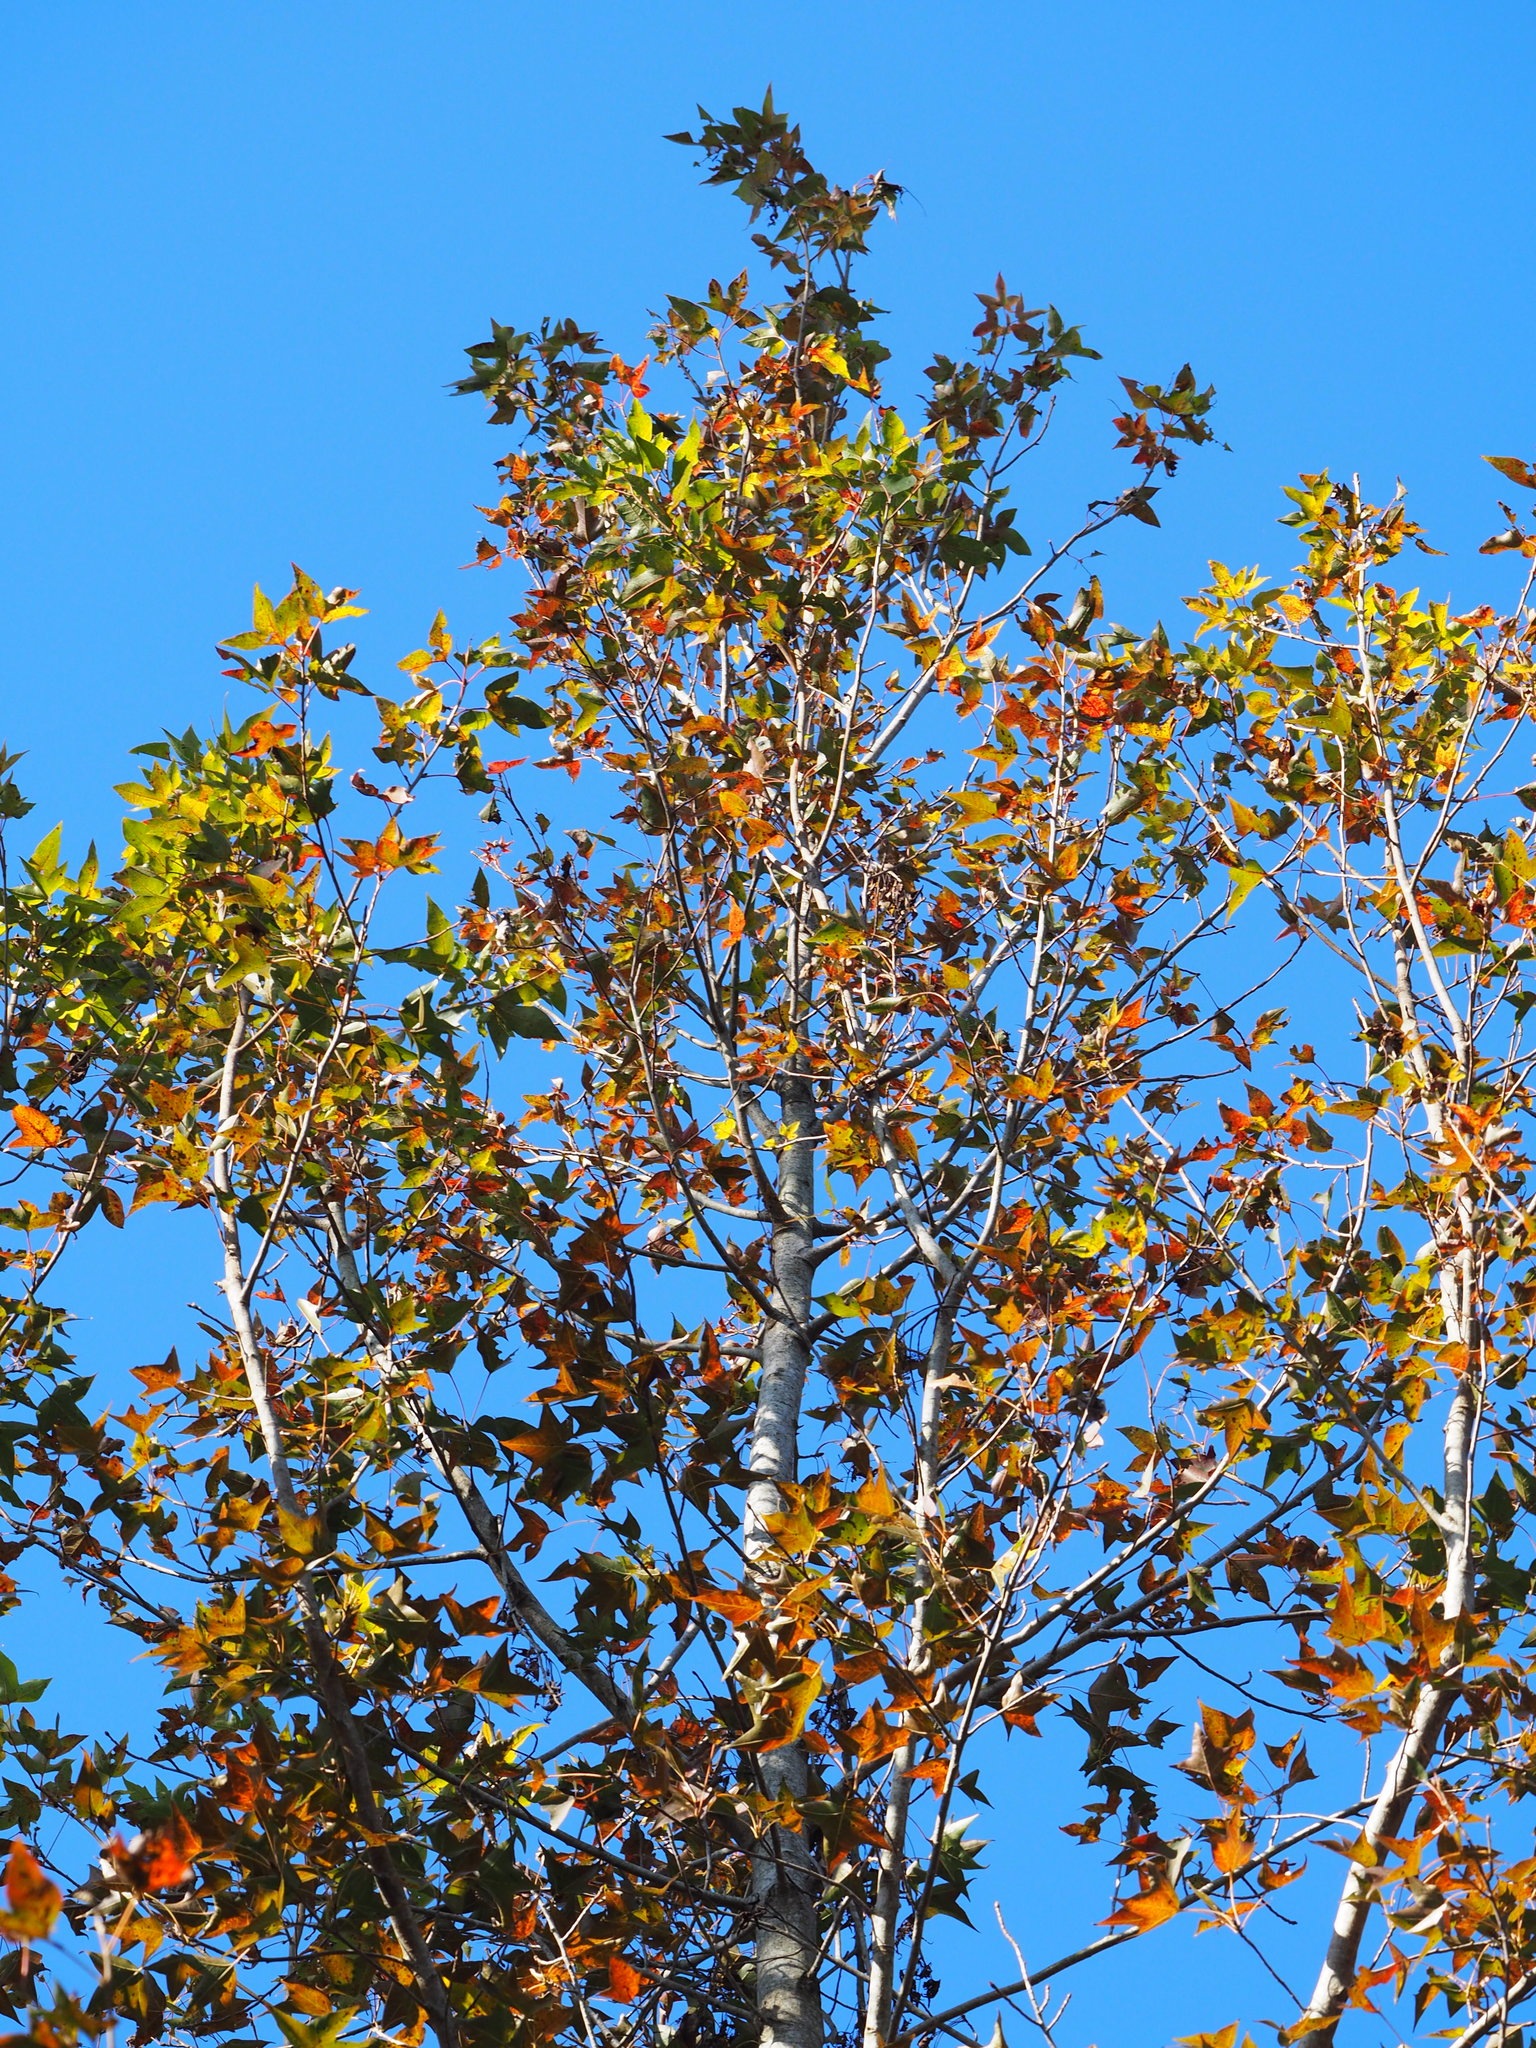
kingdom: Plantae
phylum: Tracheophyta
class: Magnoliopsida
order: Saxifragales
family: Altingiaceae
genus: Liquidambar
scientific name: Liquidambar formosana
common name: Chinese sweet gum
